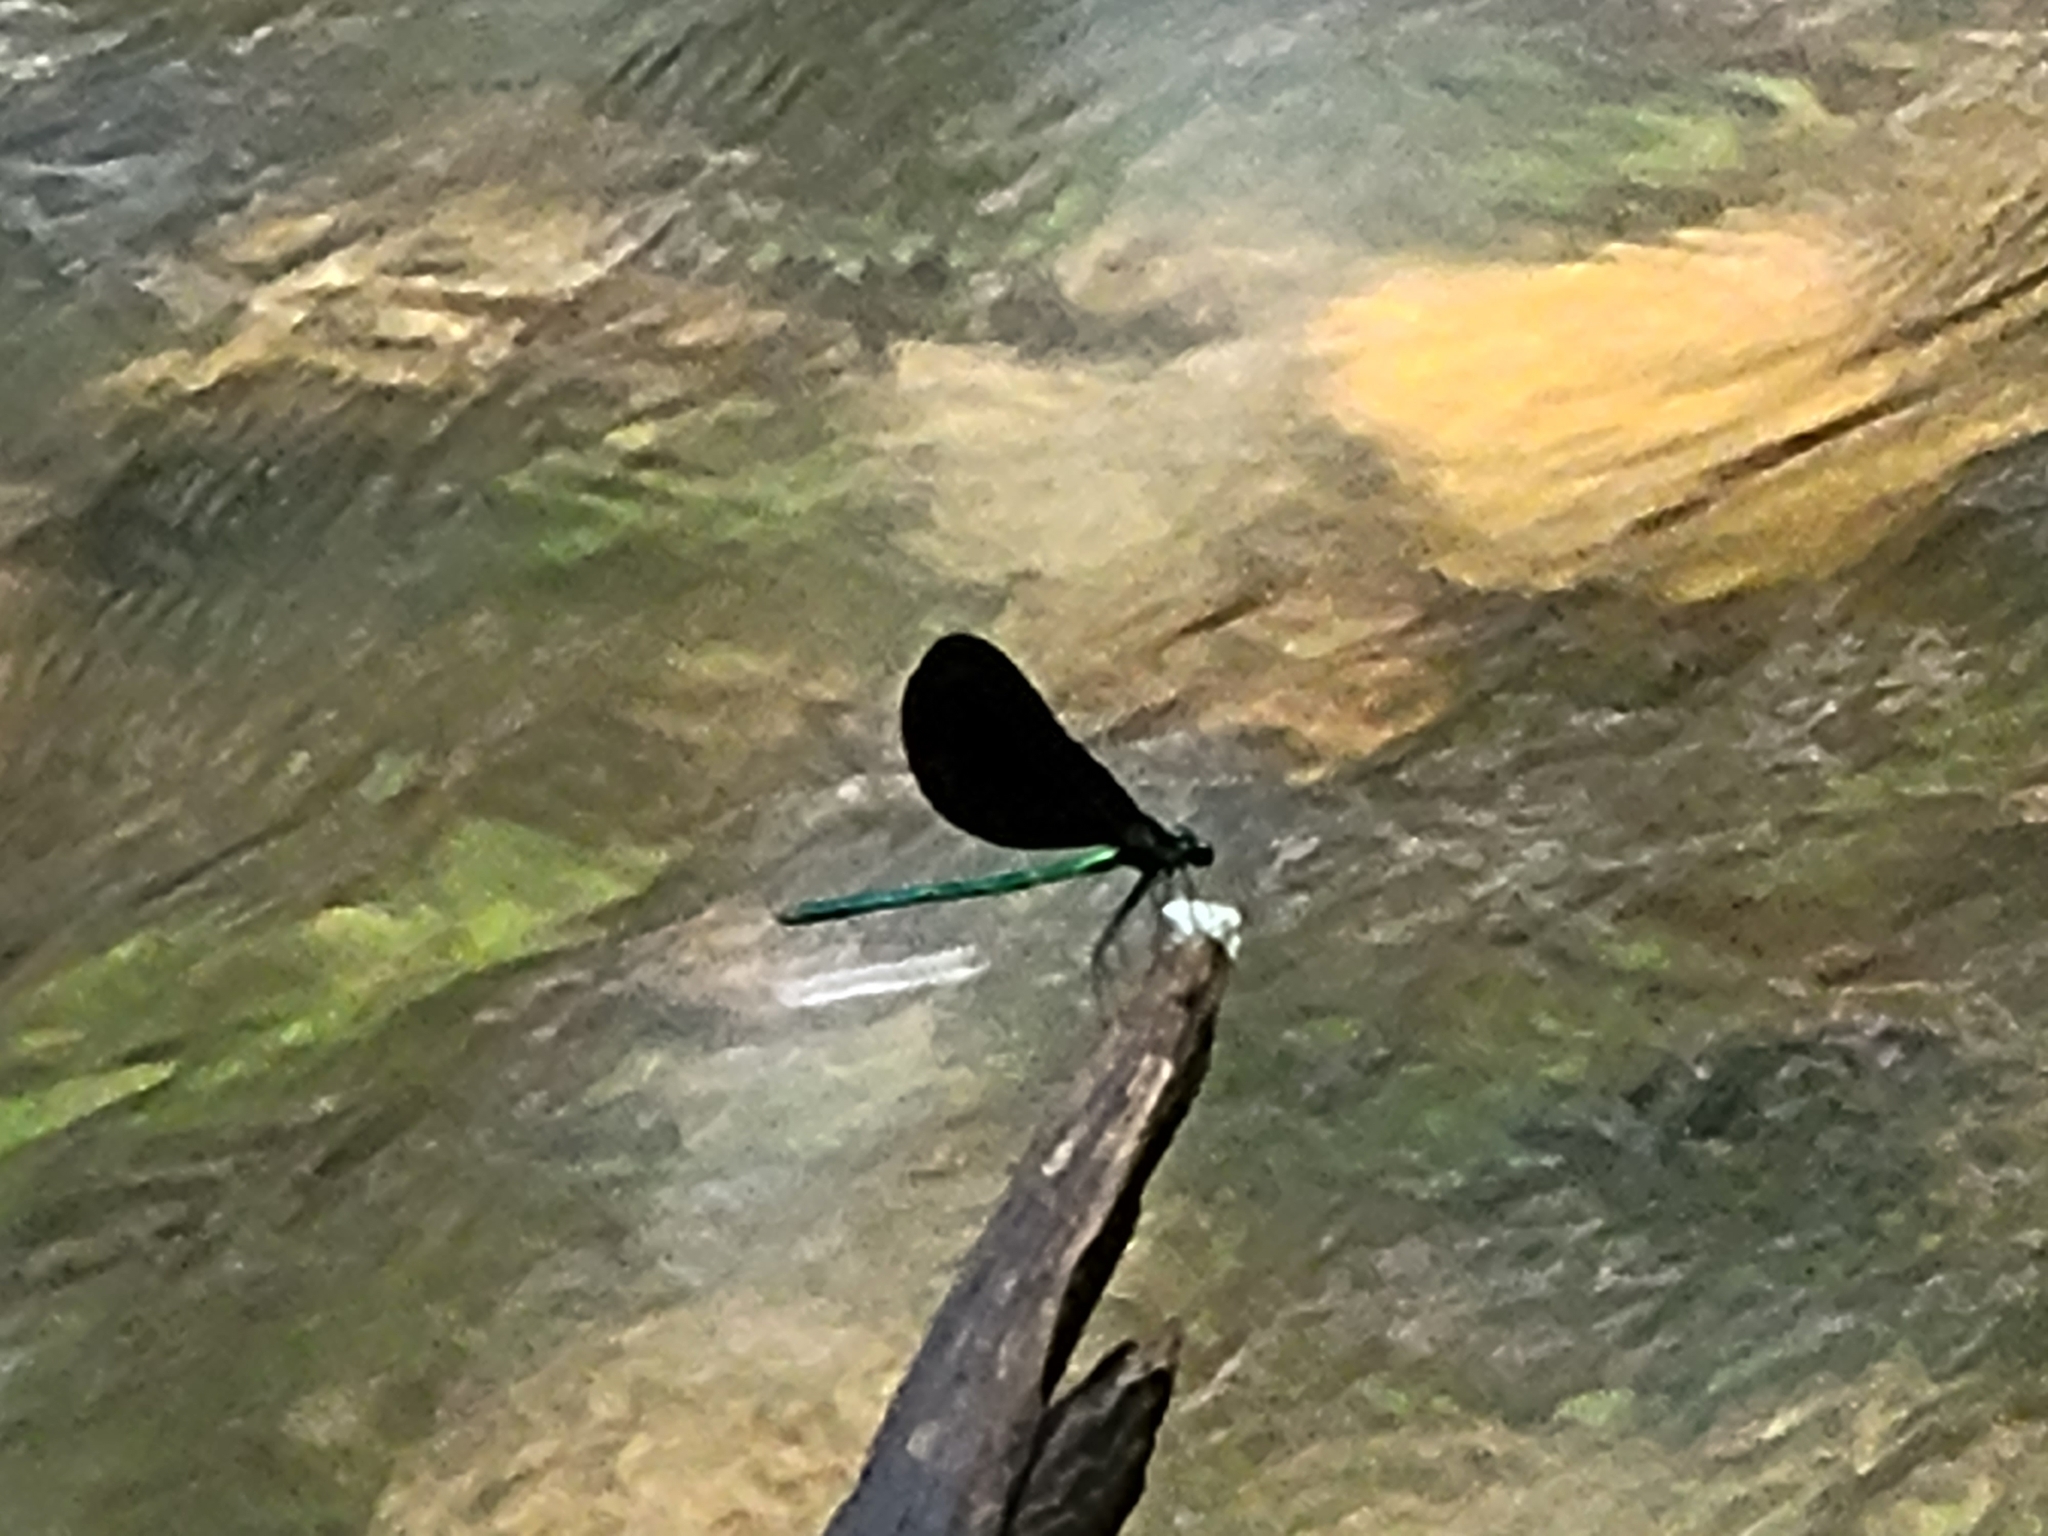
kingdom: Animalia
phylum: Arthropoda
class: Insecta
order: Odonata
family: Calopterygidae
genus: Calopteryx
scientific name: Calopteryx maculata
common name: Ebony jewelwing
